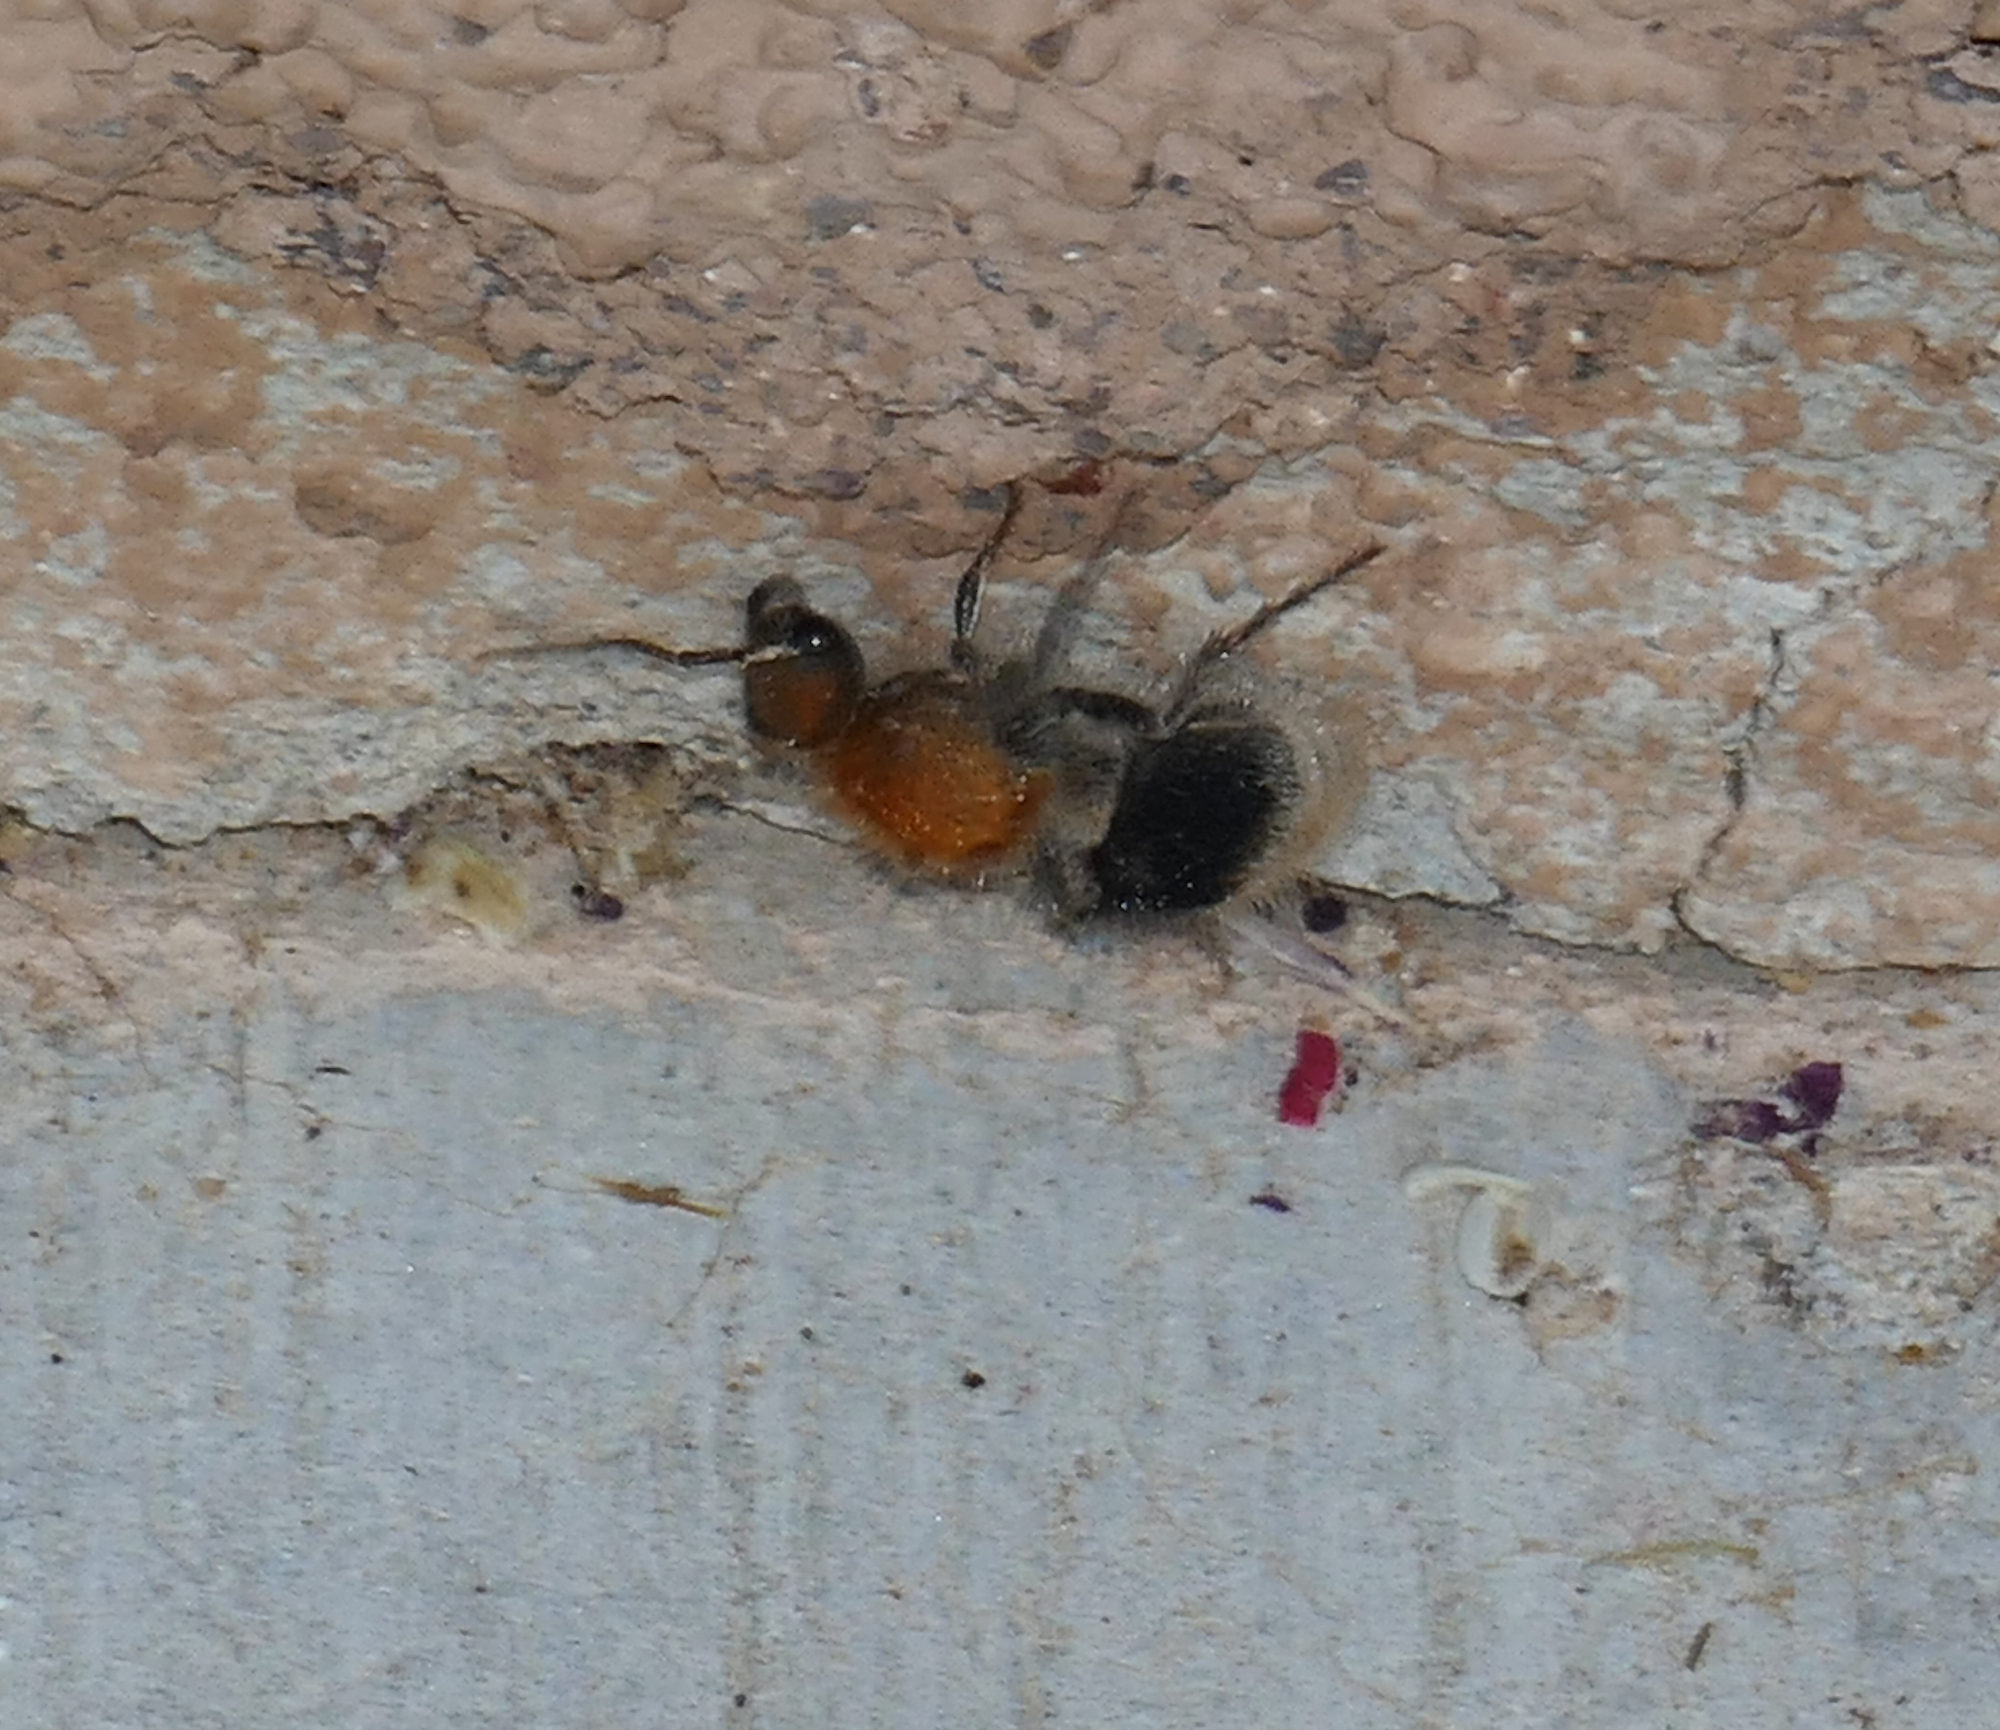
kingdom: Animalia
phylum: Arthropoda
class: Insecta
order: Hymenoptera
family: Mutillidae
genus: Sphaeropthalma
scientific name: Sphaeropthalma marpesia
